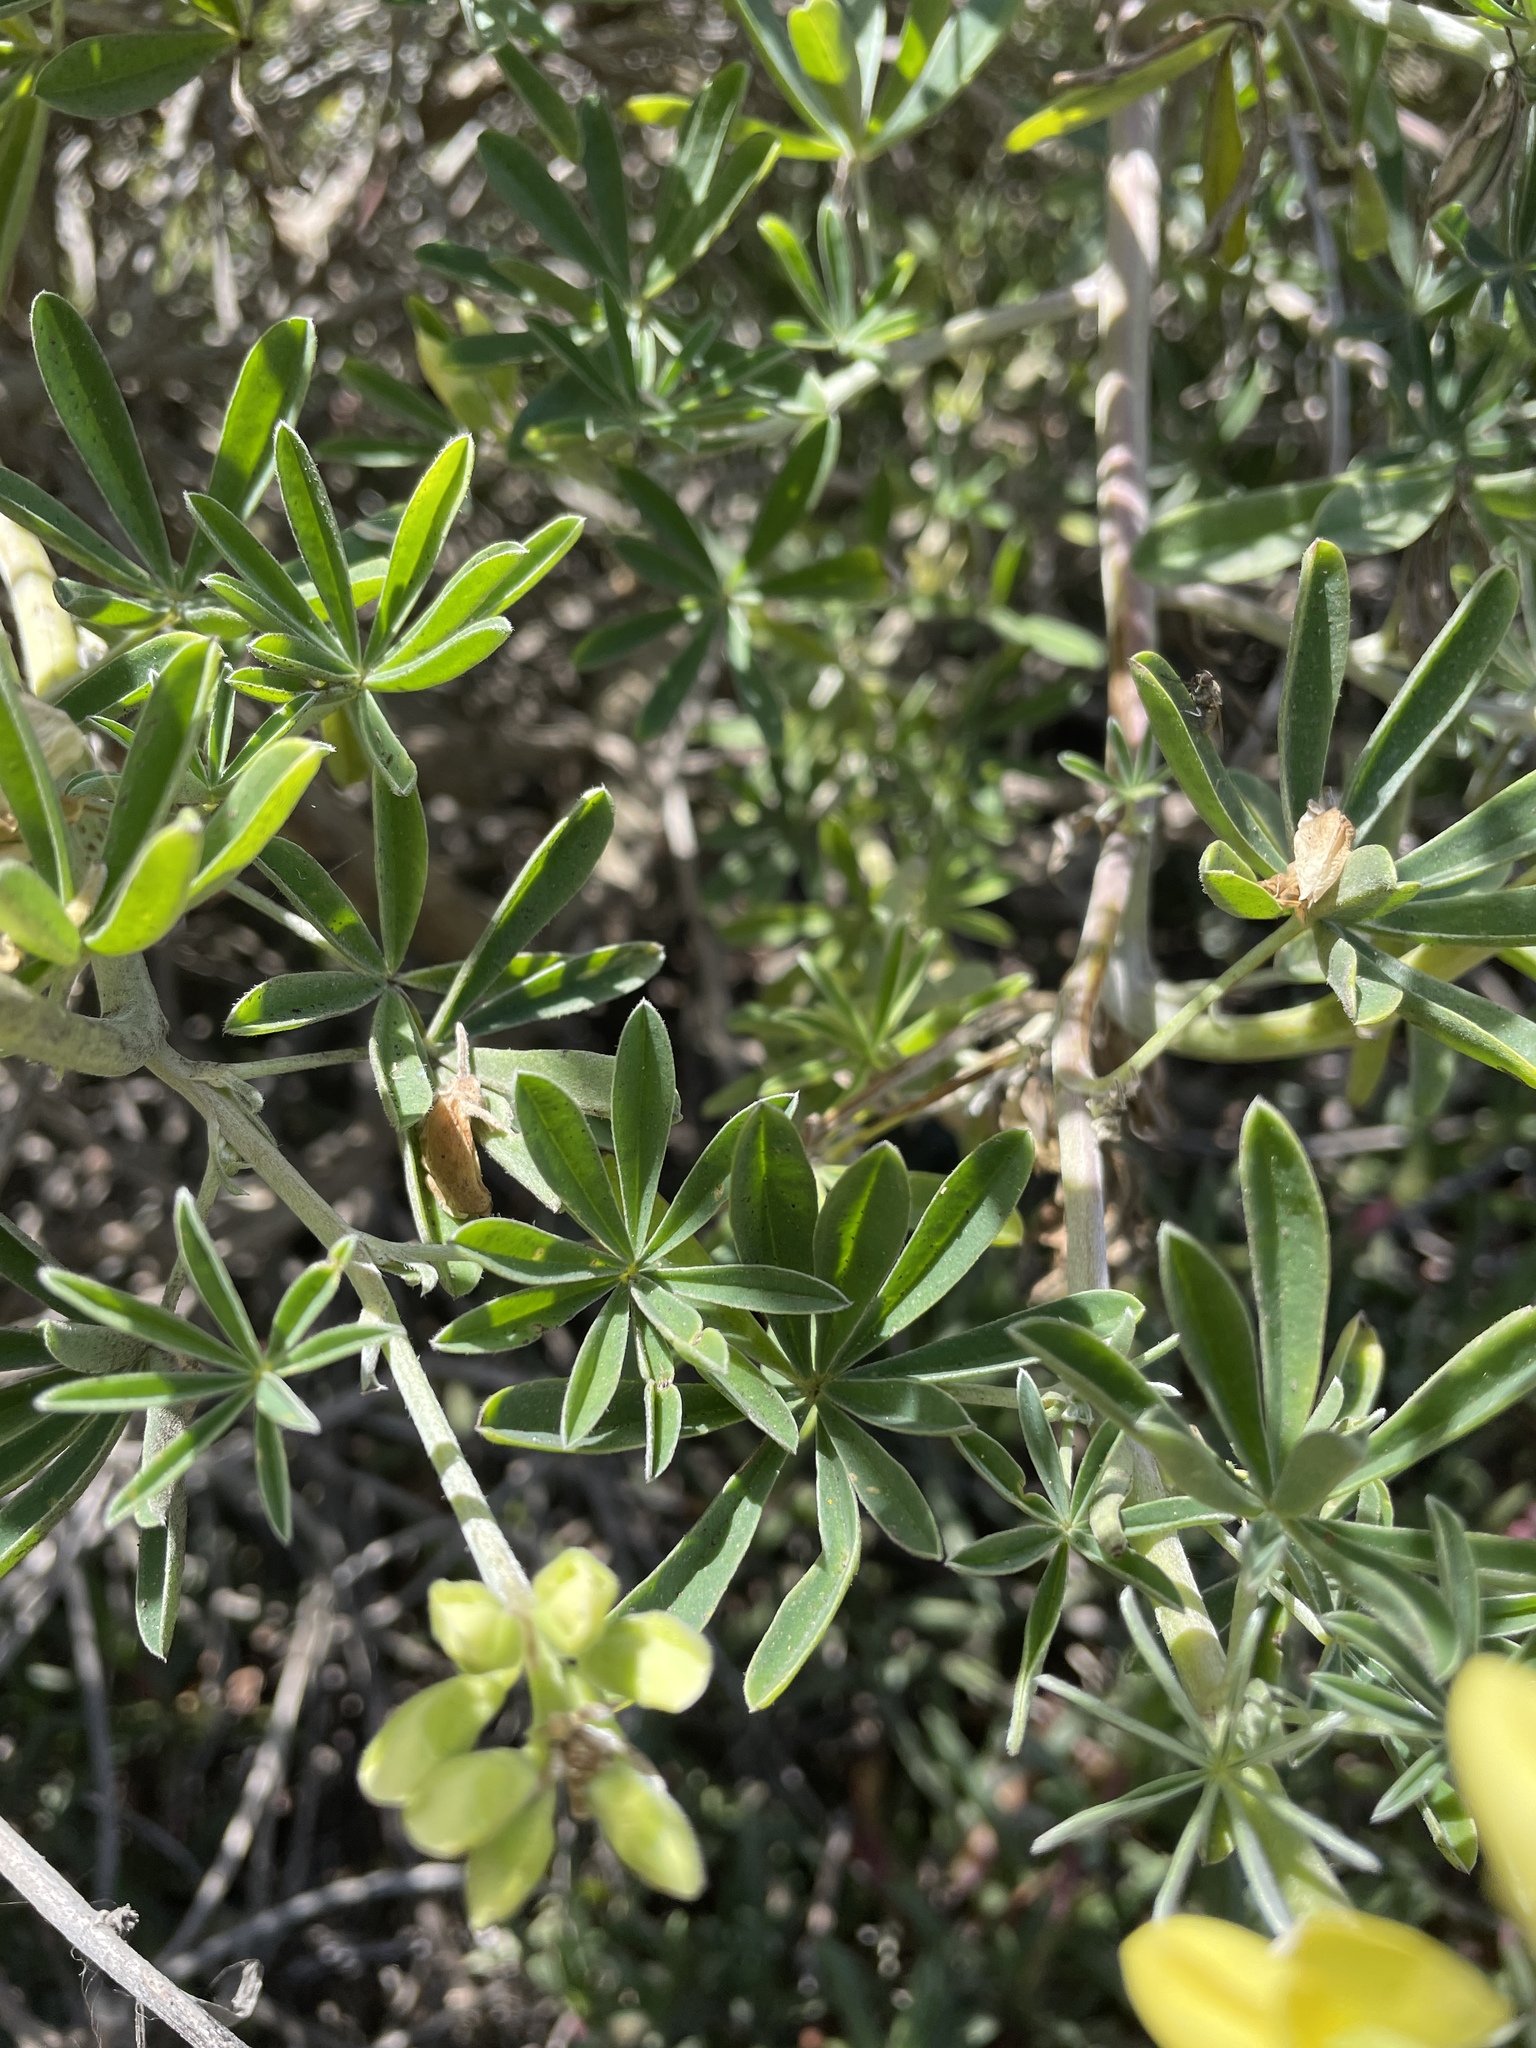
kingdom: Plantae
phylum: Tracheophyta
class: Magnoliopsida
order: Fabales
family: Fabaceae
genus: Lupinus
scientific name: Lupinus arboreus
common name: Yellow bush lupine
